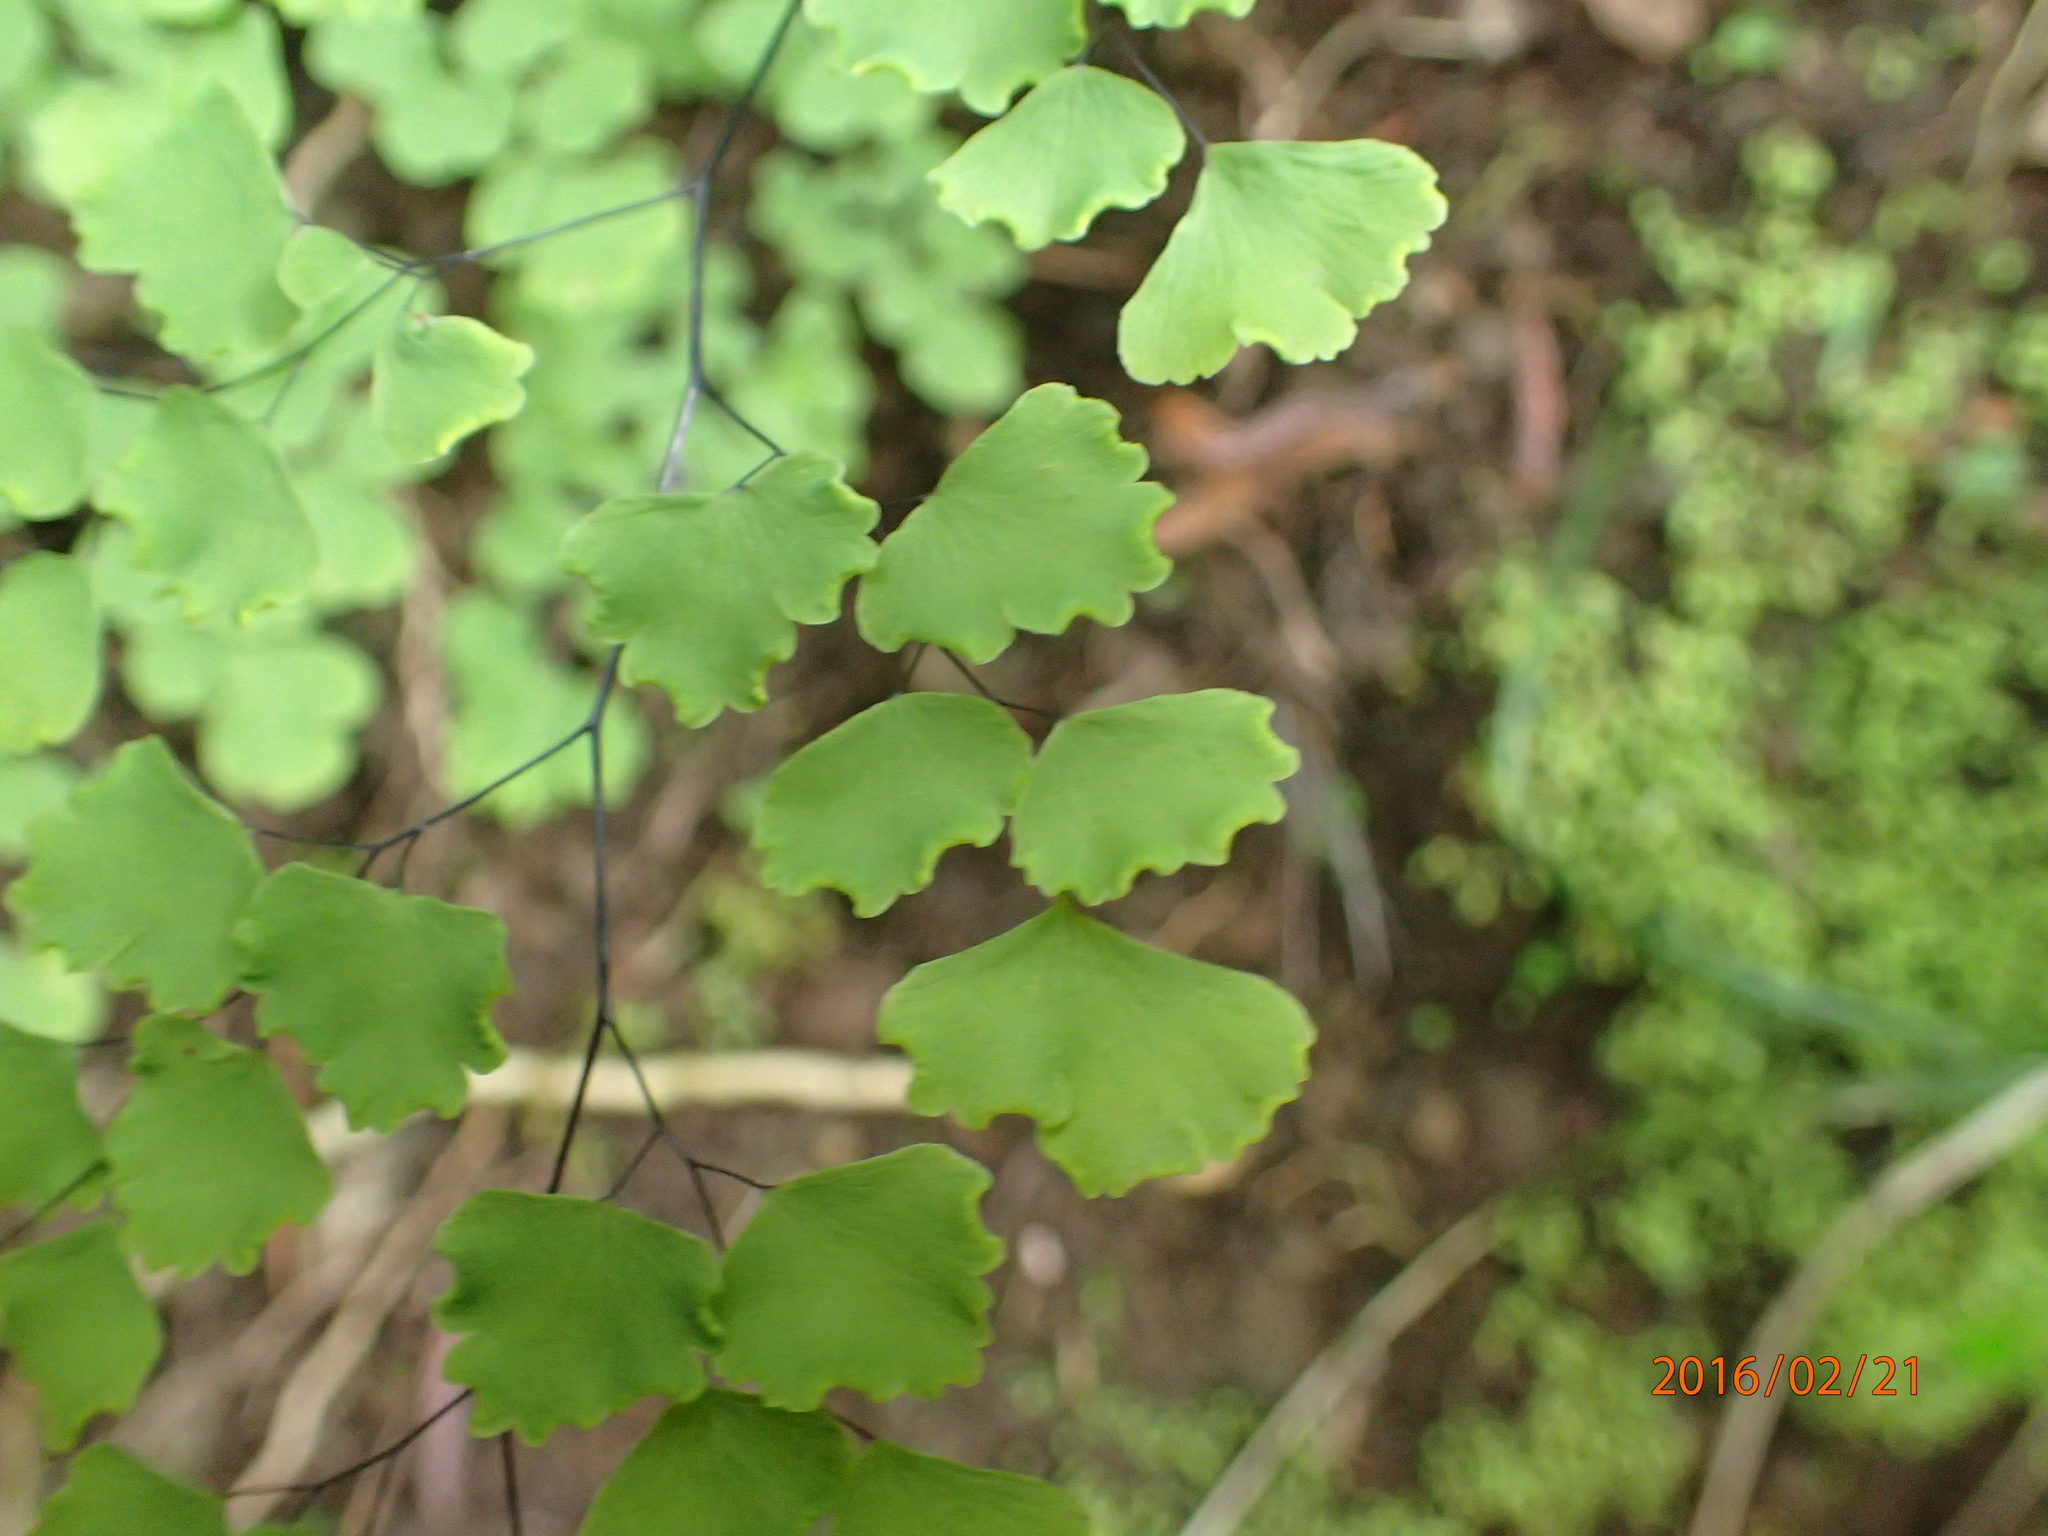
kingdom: Plantae
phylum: Tracheophyta
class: Polypodiopsida
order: Polypodiales
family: Pteridaceae
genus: Adiantum
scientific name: Adiantum poiretii
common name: Mexican maidenhair
